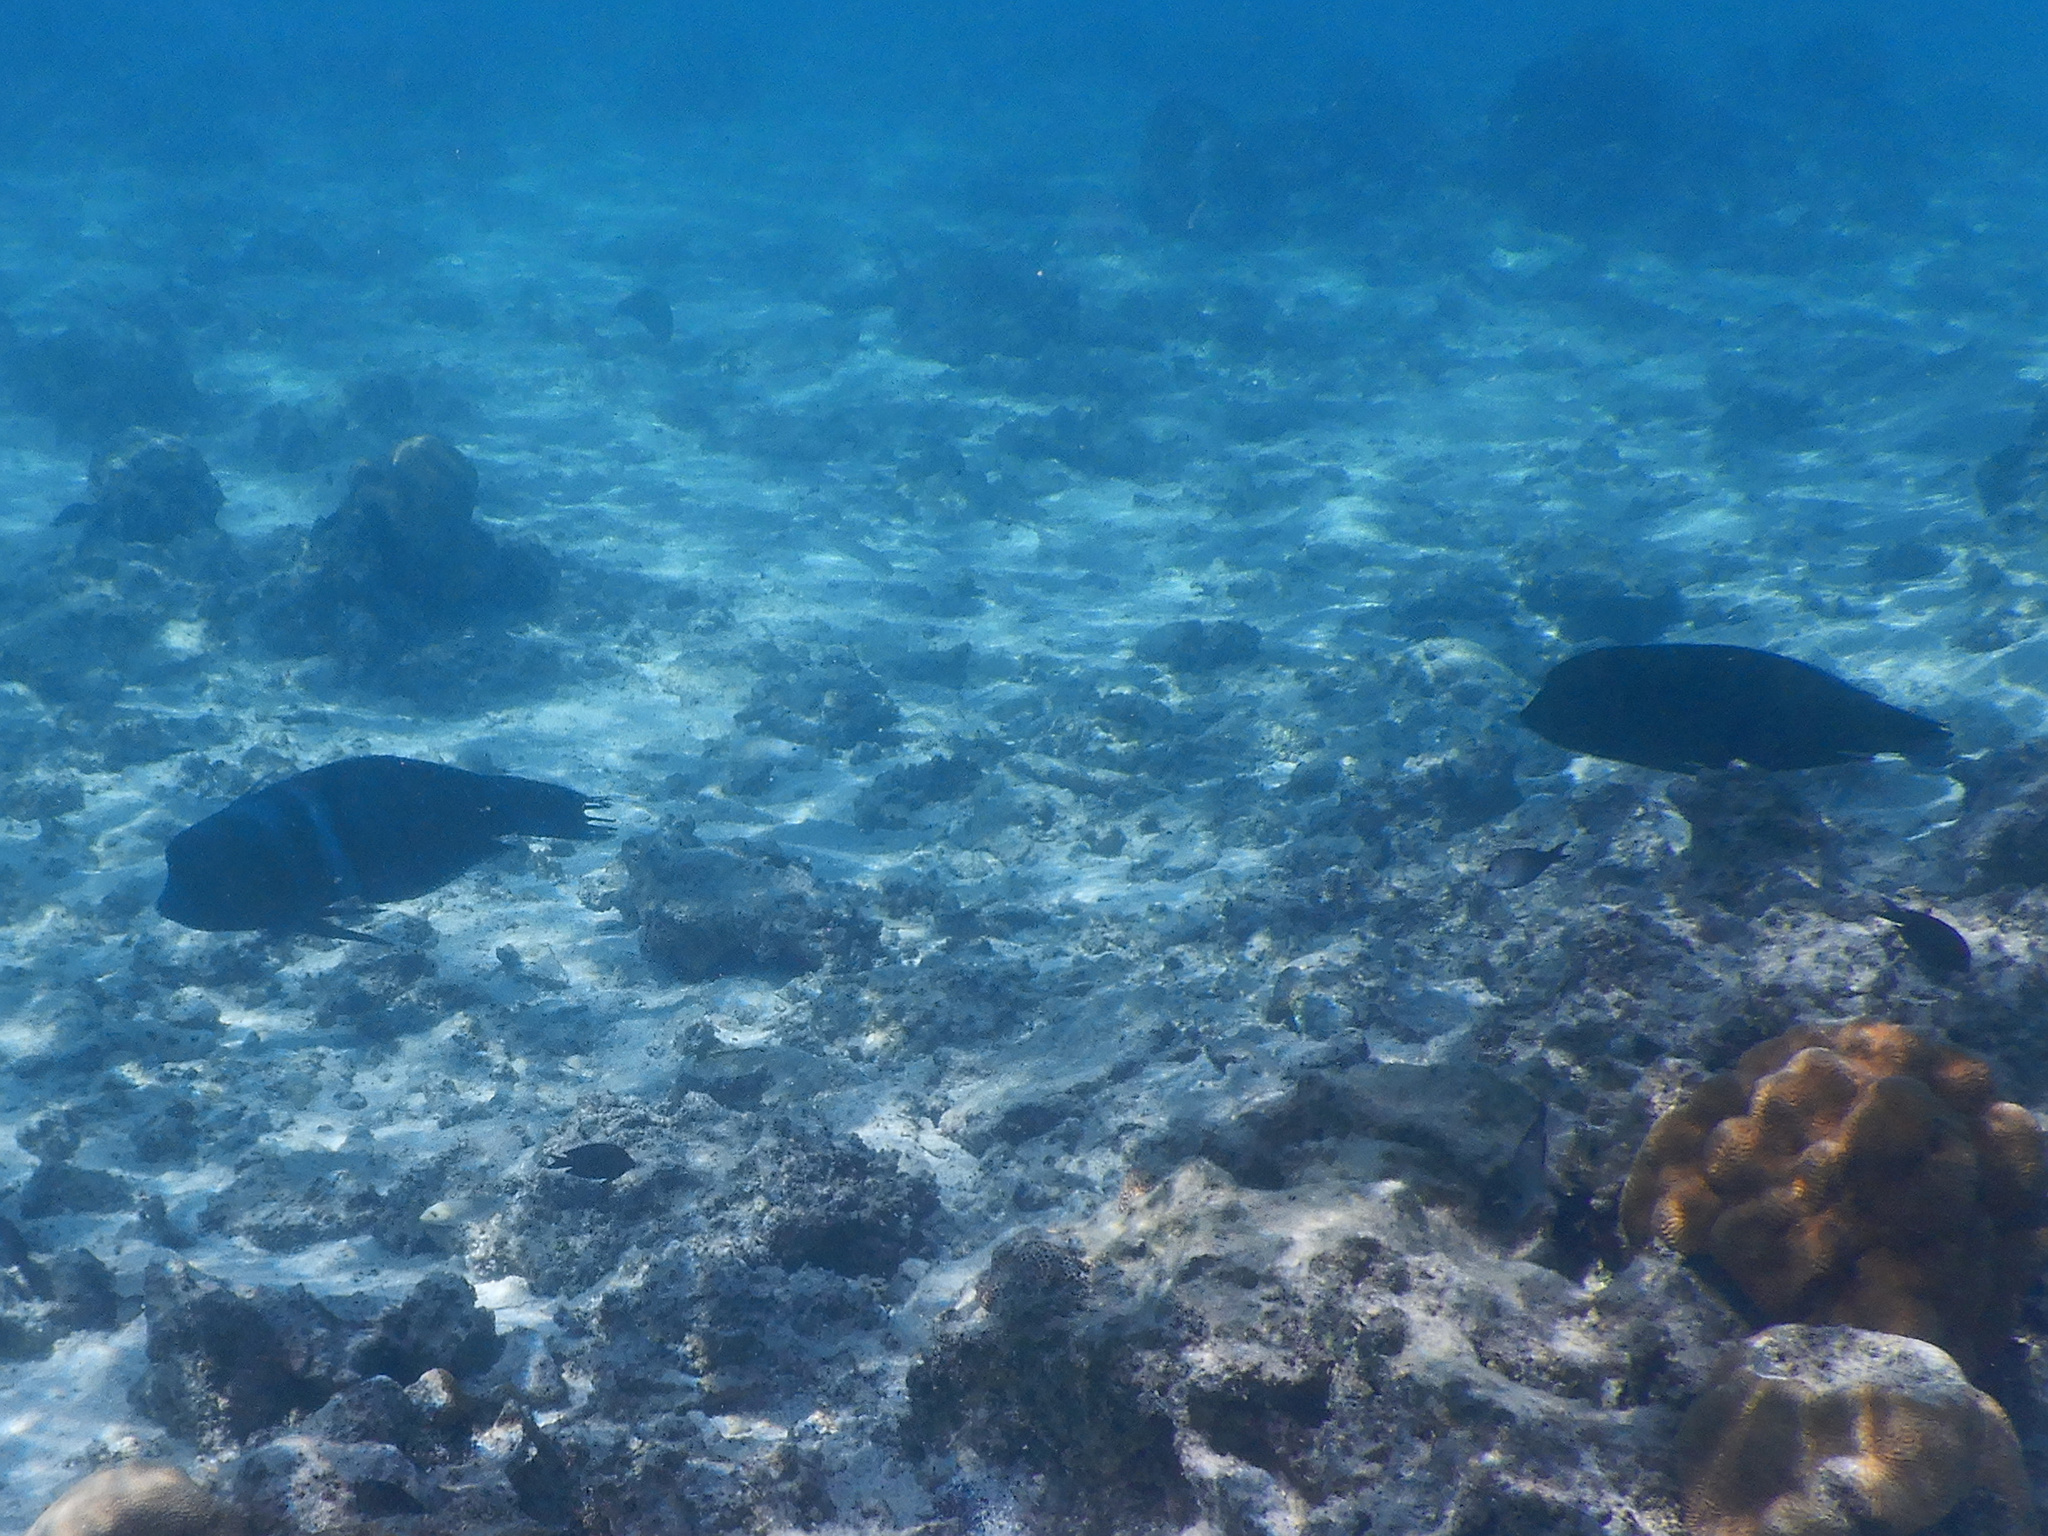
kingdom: Animalia
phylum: Chordata
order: Perciformes
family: Labridae
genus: Coris
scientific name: Coris aygula
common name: Clown coris
